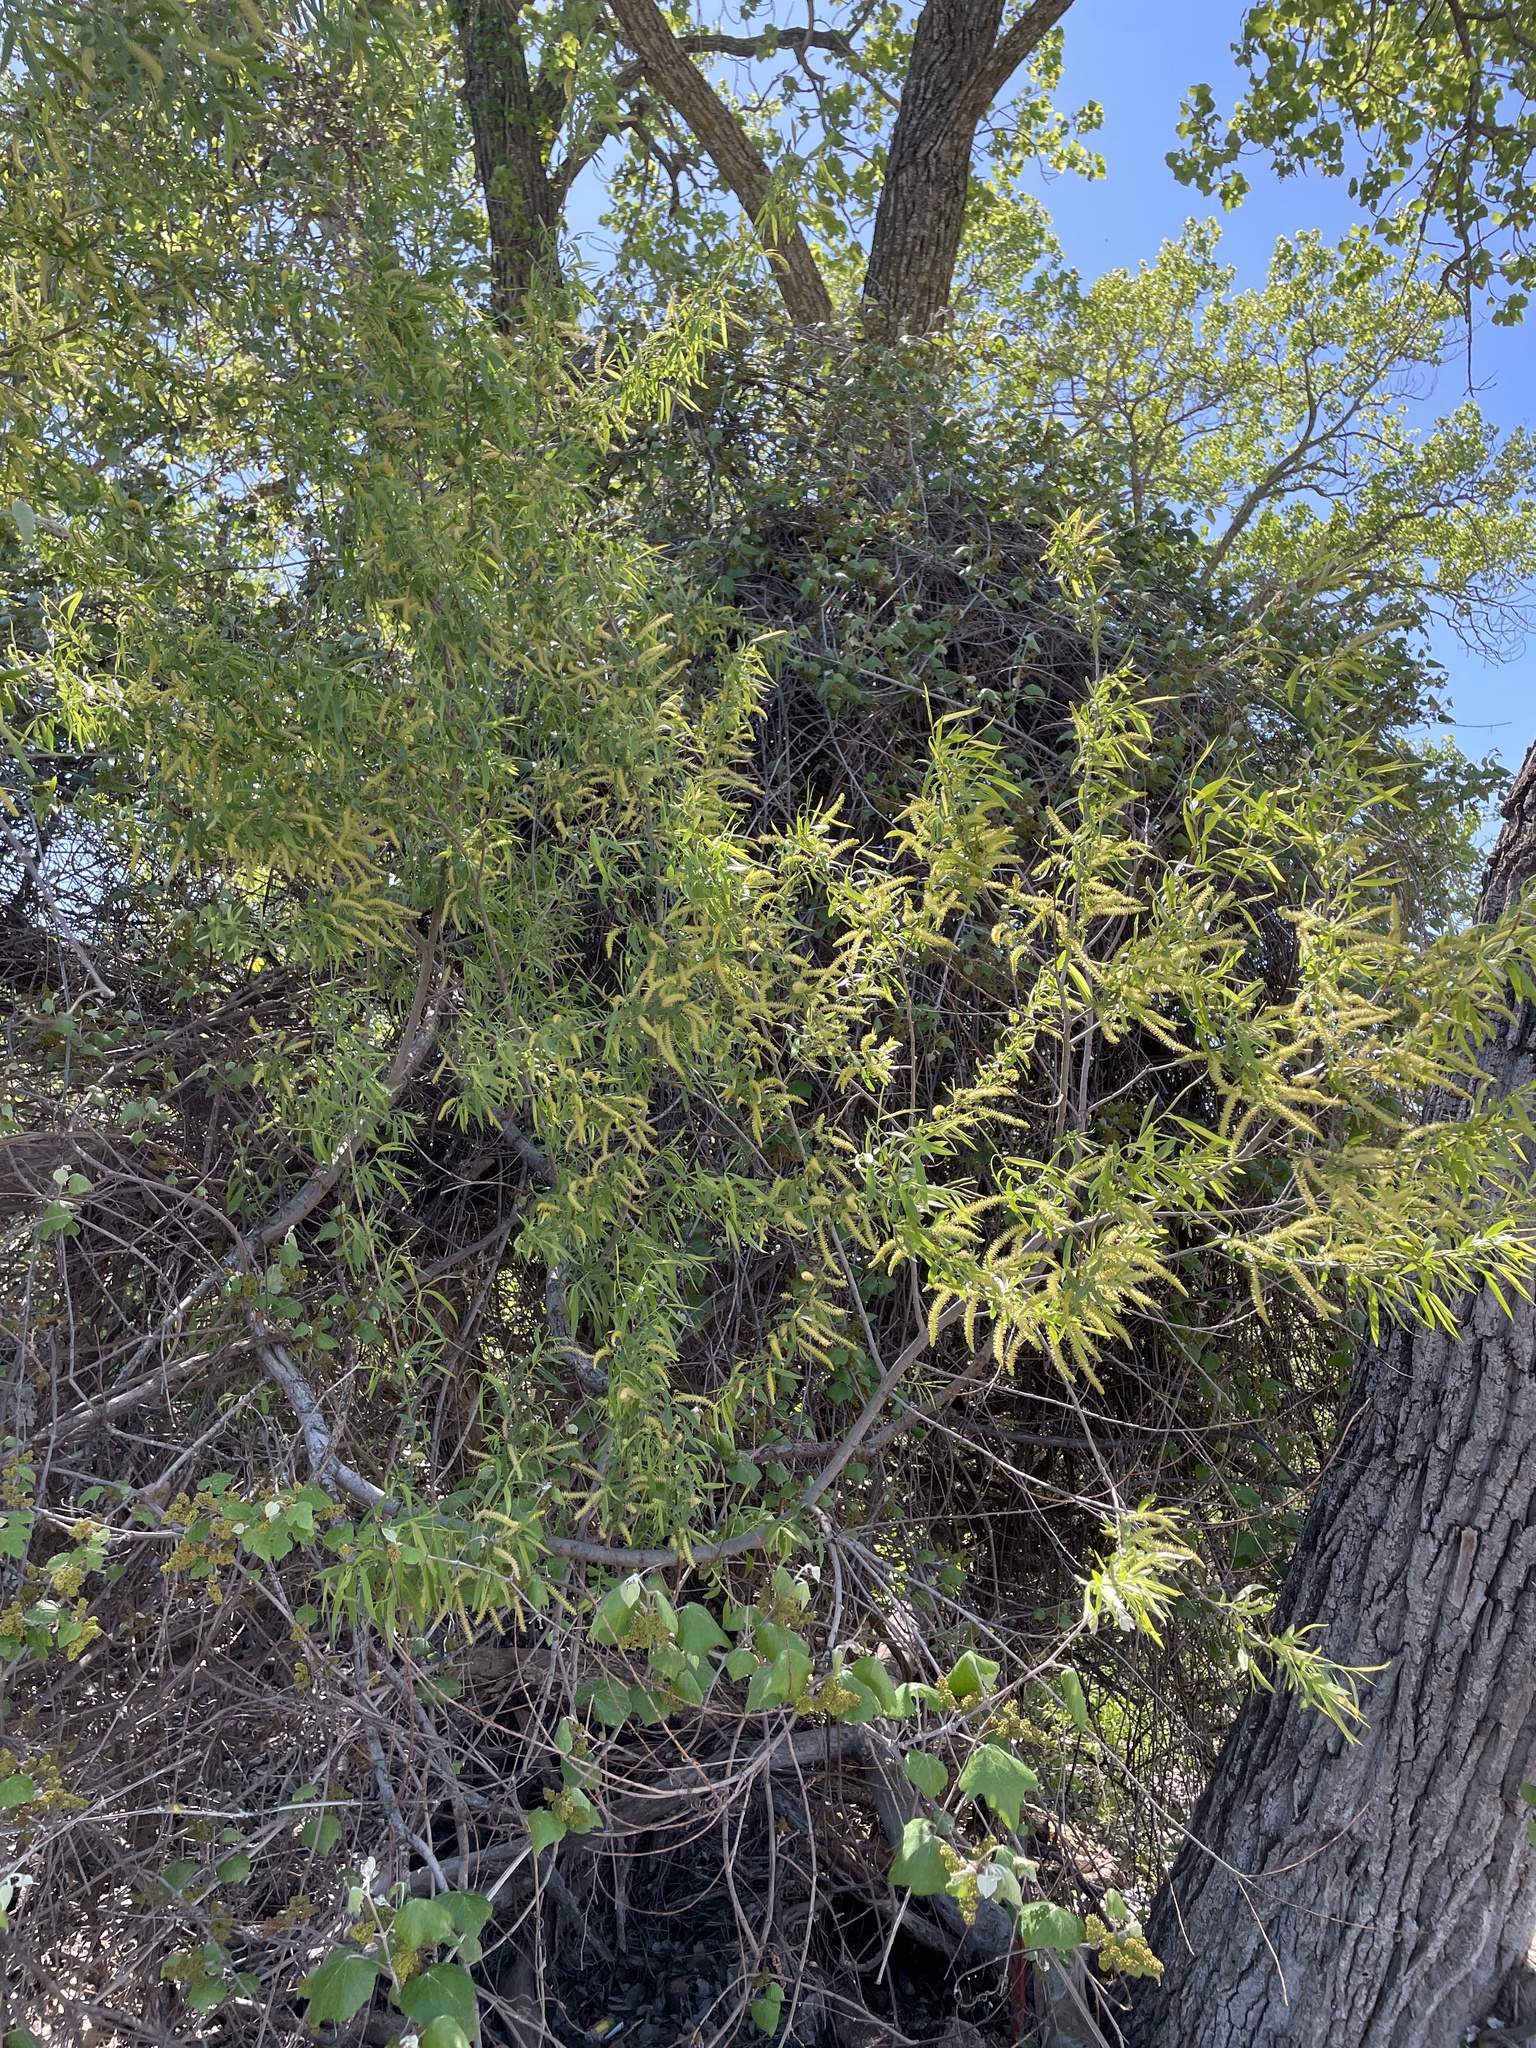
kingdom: Plantae
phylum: Tracheophyta
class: Magnoliopsida
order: Malpighiales
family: Salicaceae
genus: Salix
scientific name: Salix nigra
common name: Black willow
